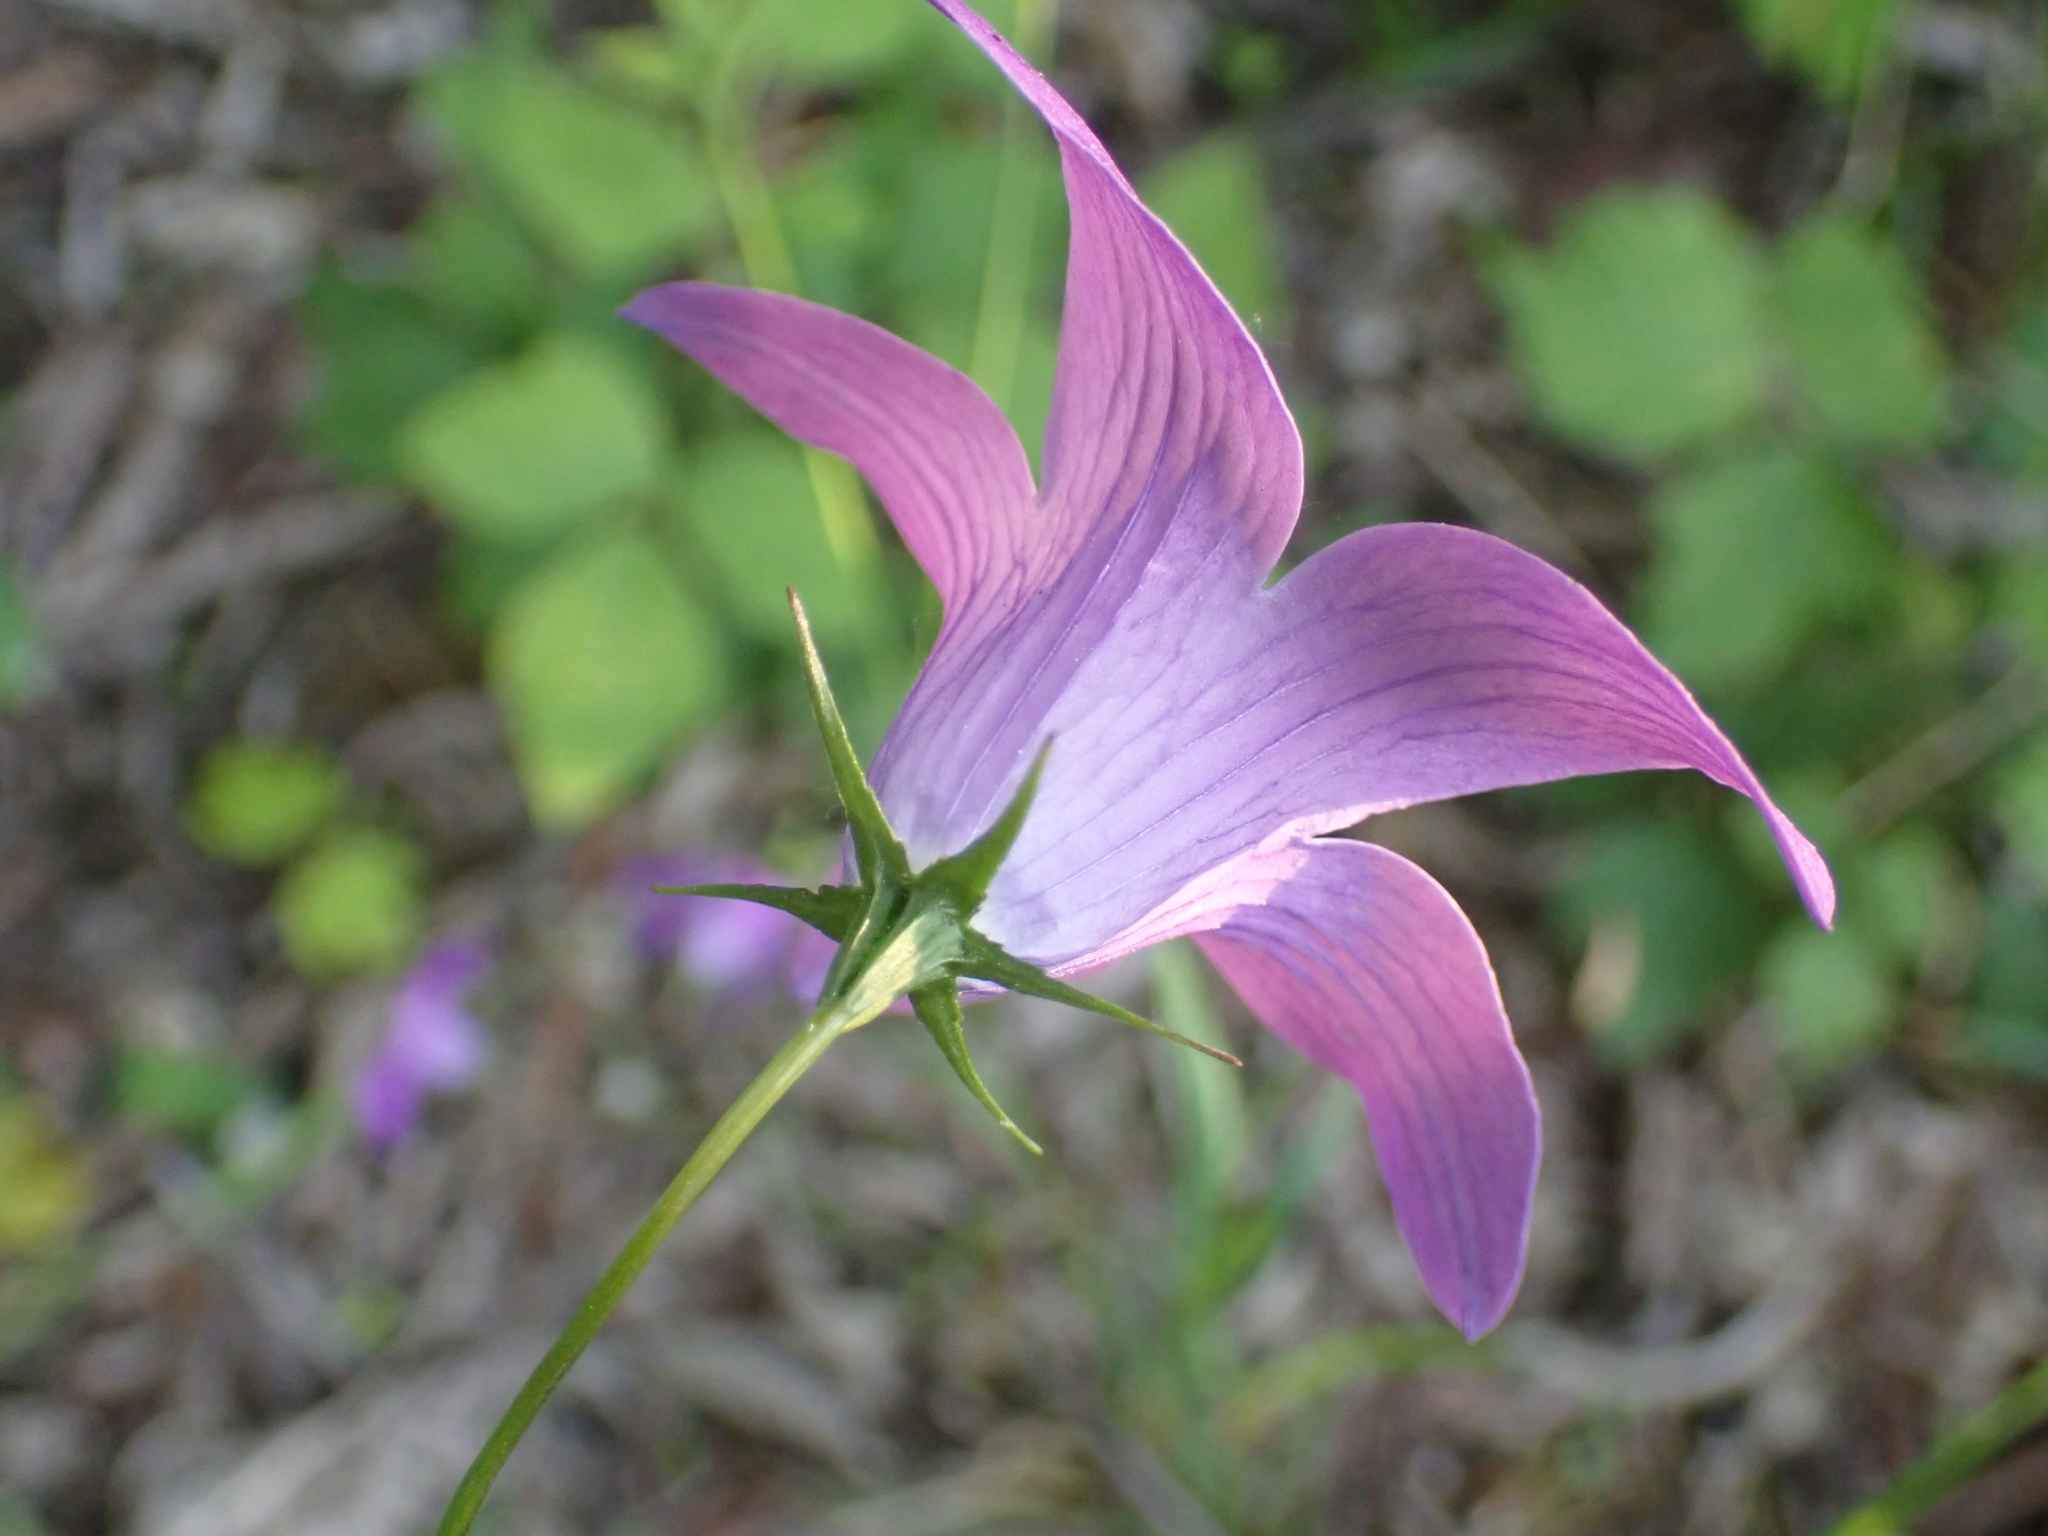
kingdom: Plantae
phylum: Tracheophyta
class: Magnoliopsida
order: Asterales
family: Campanulaceae
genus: Campanula
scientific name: Campanula patula
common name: Spreading bellflower
